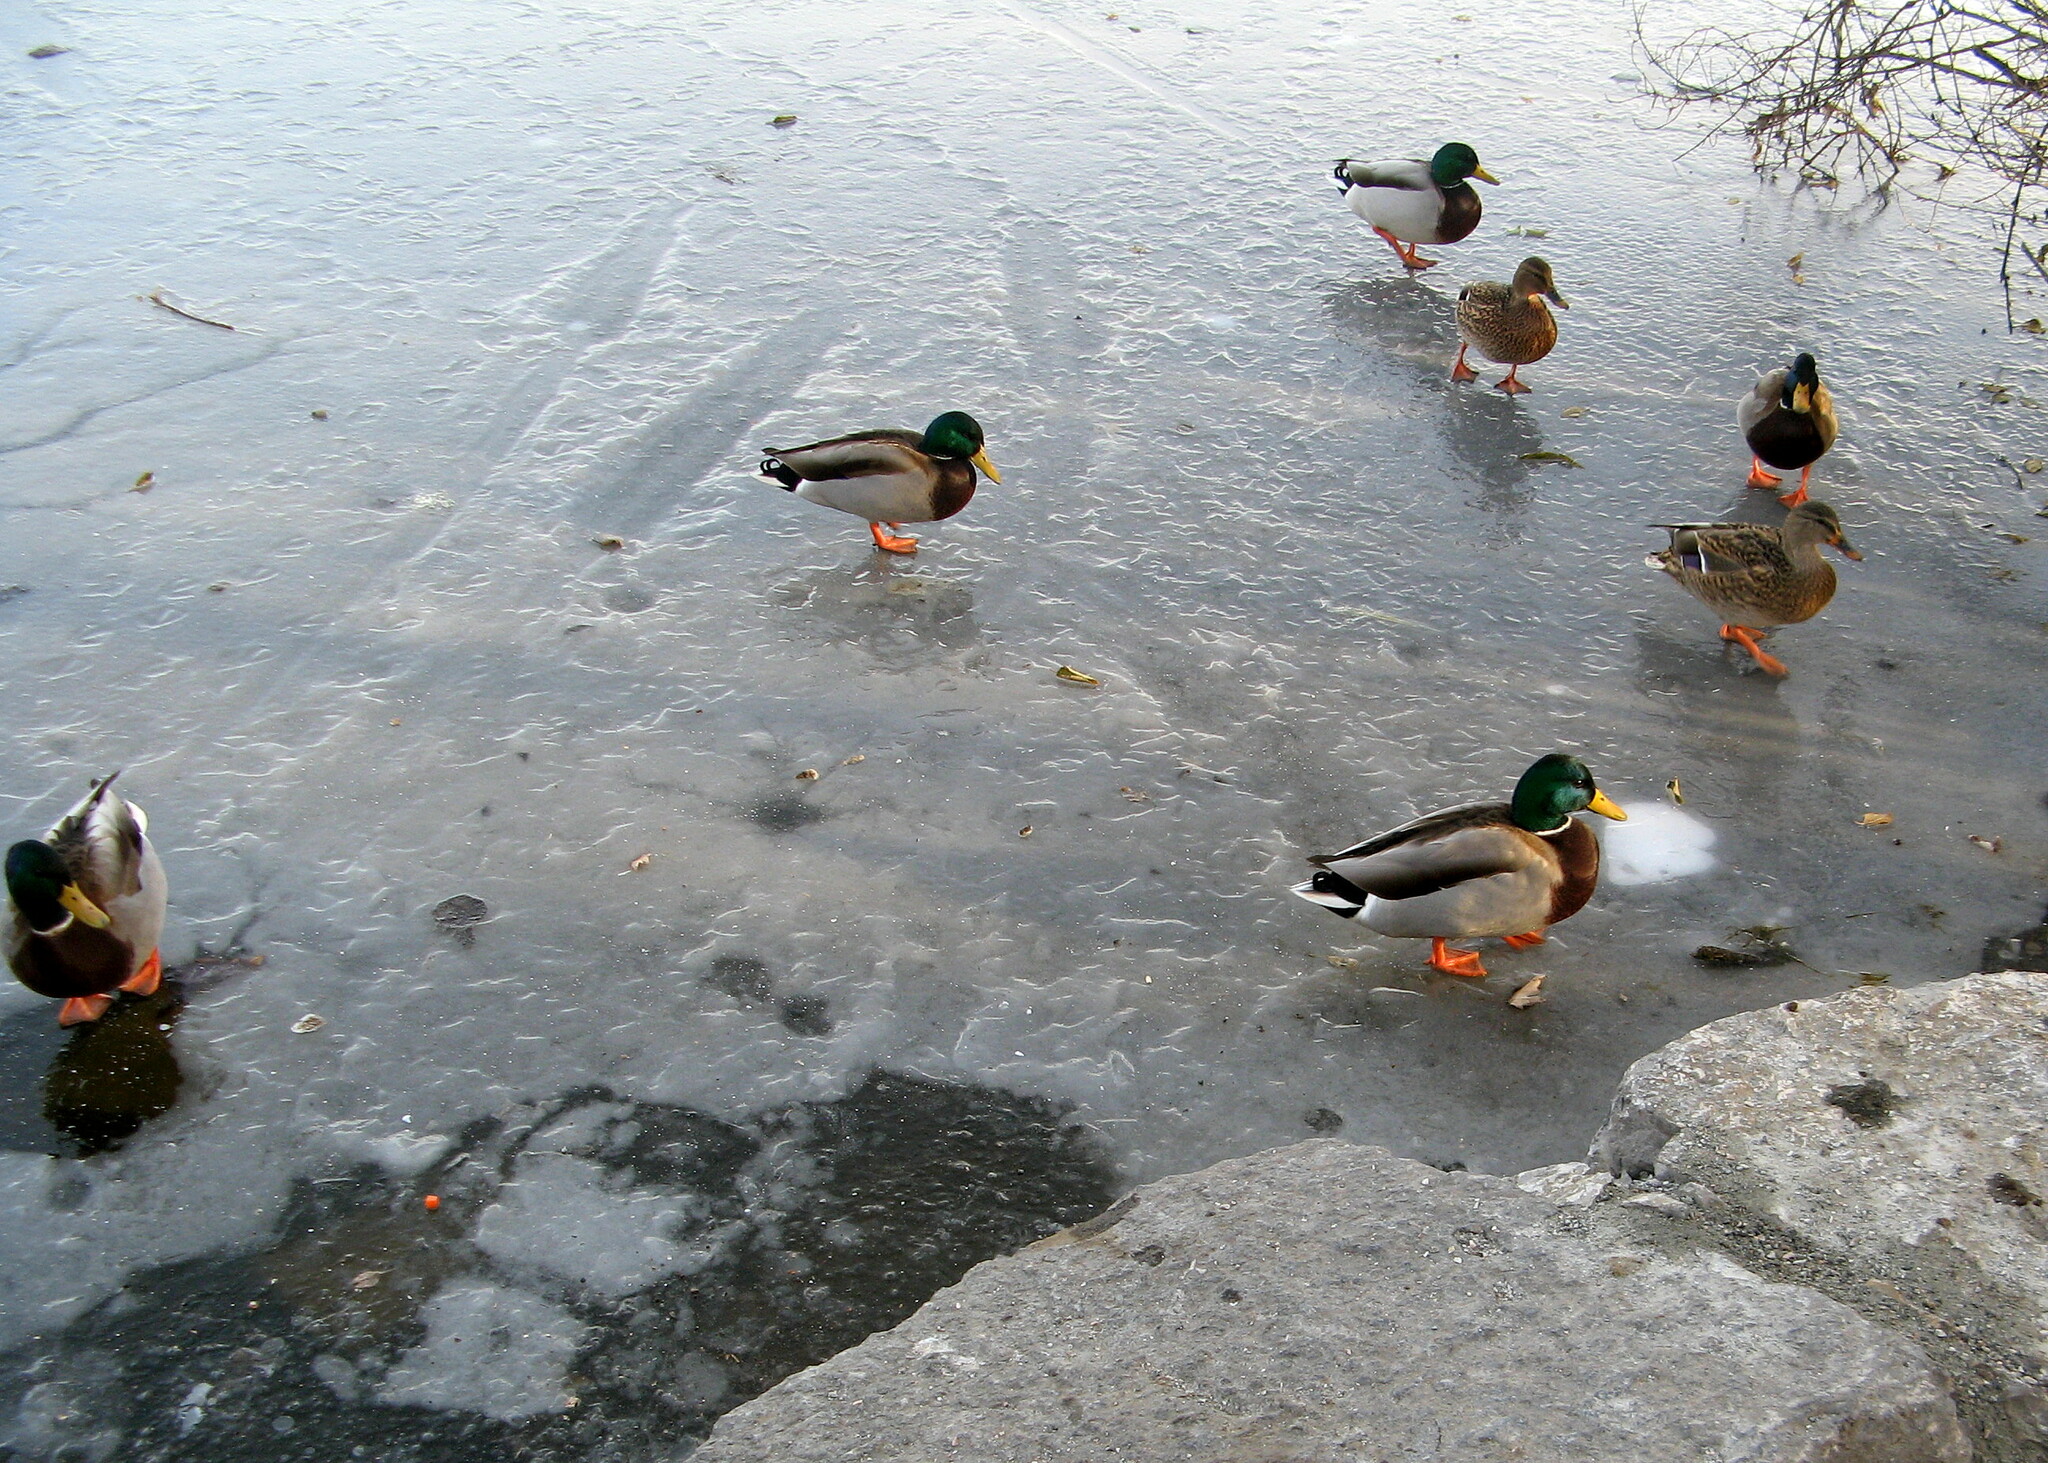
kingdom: Animalia
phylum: Chordata
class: Aves
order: Anseriformes
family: Anatidae
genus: Anas
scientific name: Anas platyrhynchos
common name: Mallard
